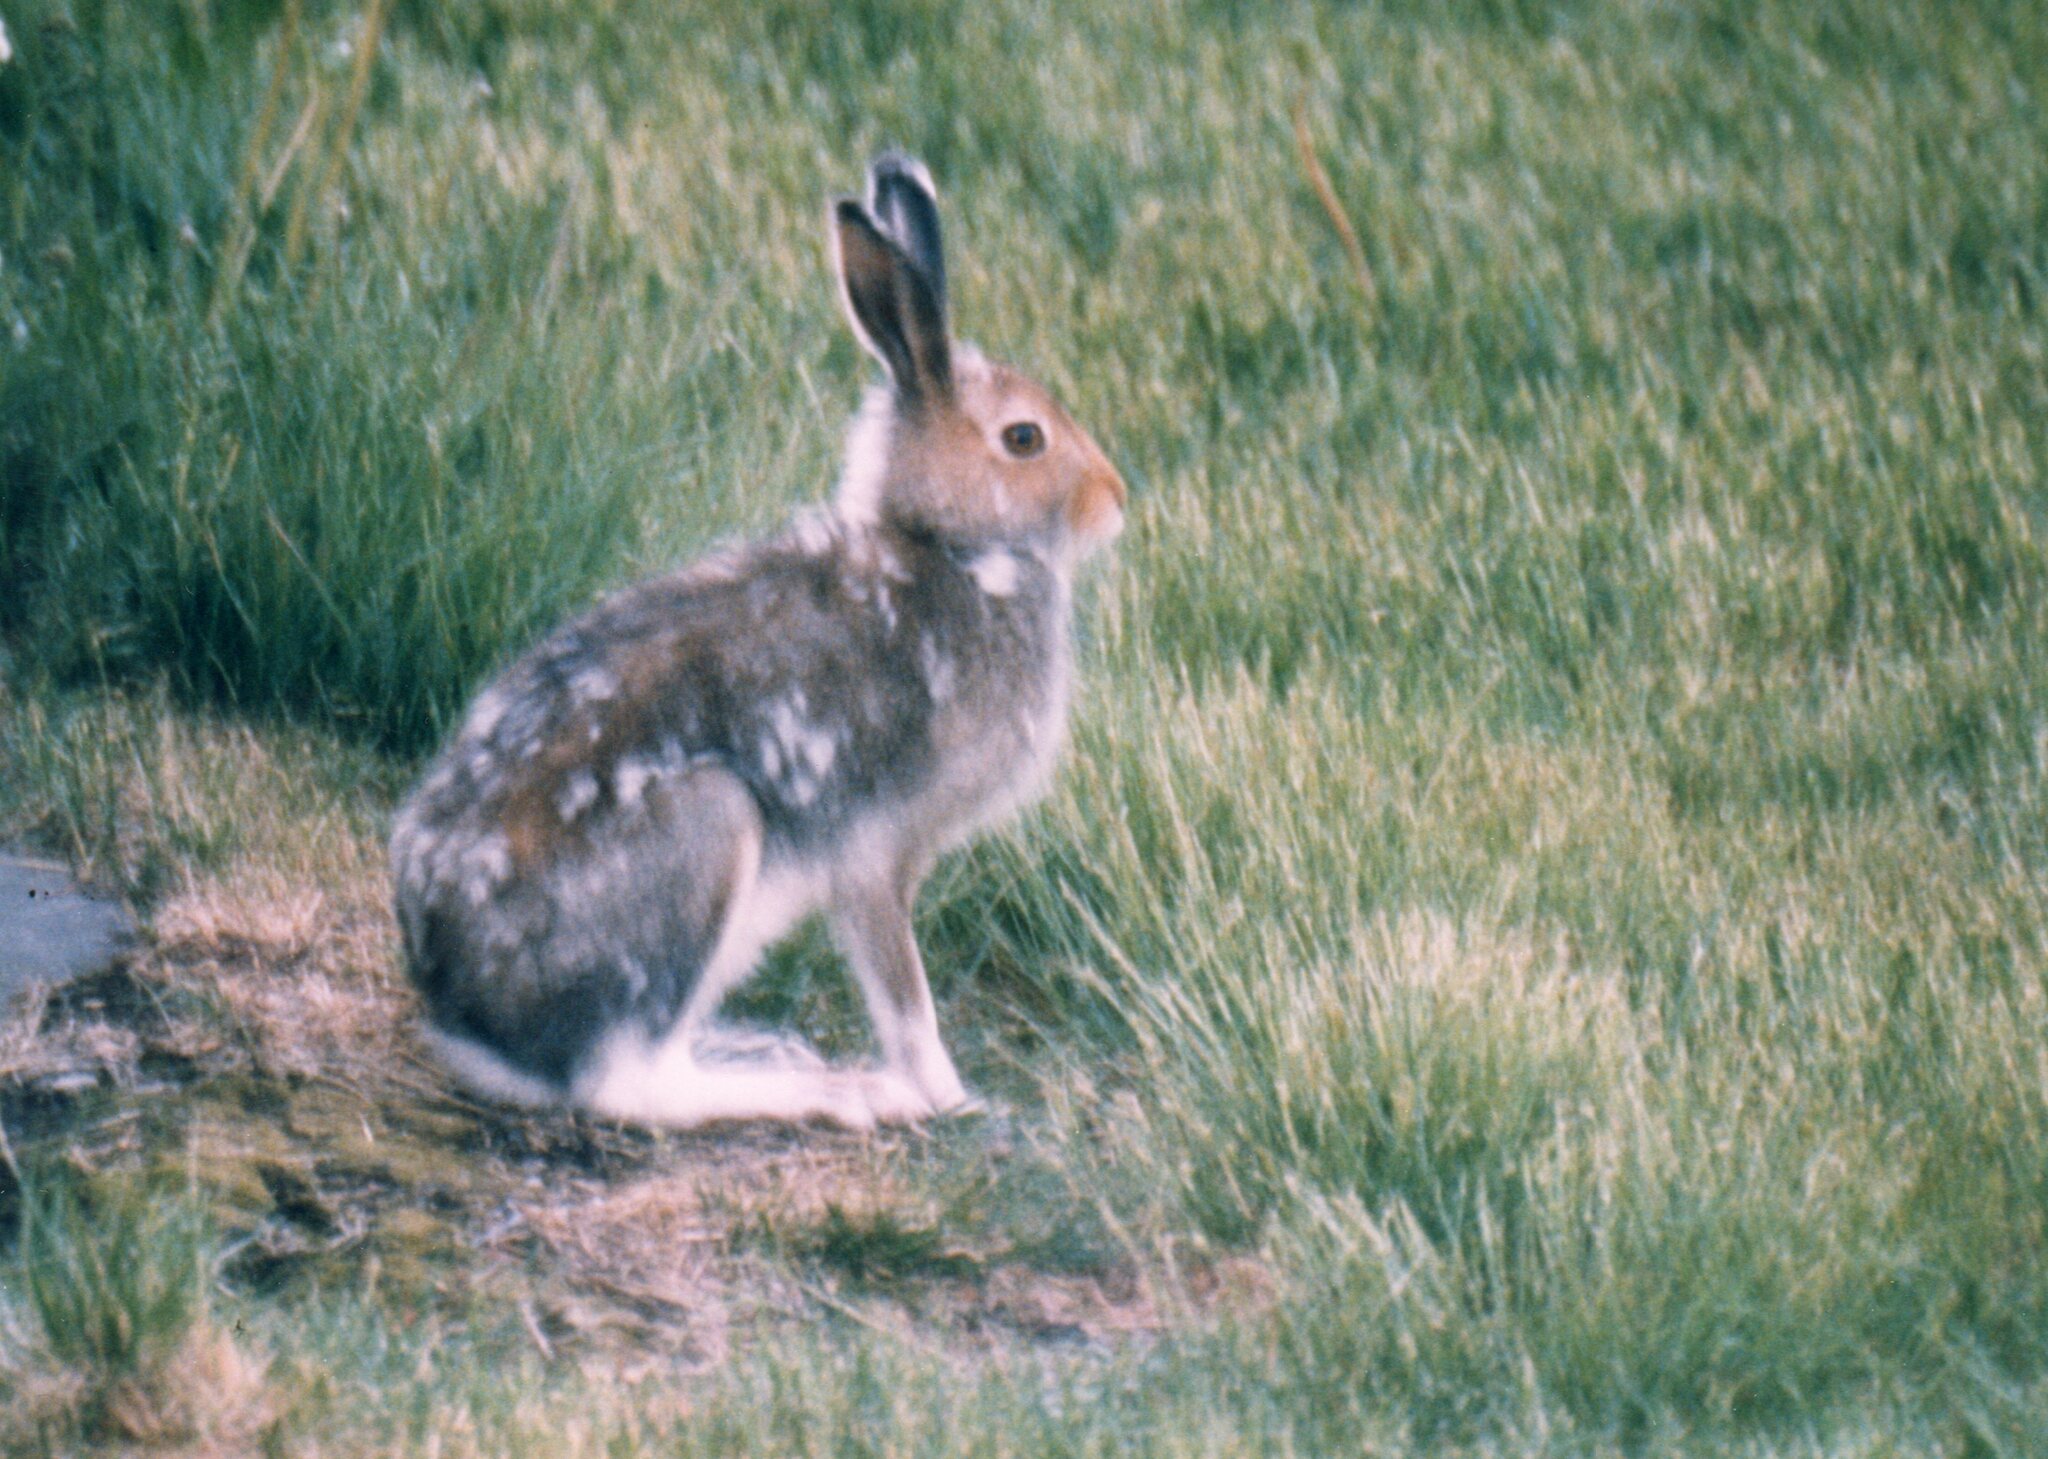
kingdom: Animalia
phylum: Chordata
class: Mammalia
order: Lagomorpha
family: Leporidae
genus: Lepus
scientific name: Lepus timidus
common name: Mountain hare
